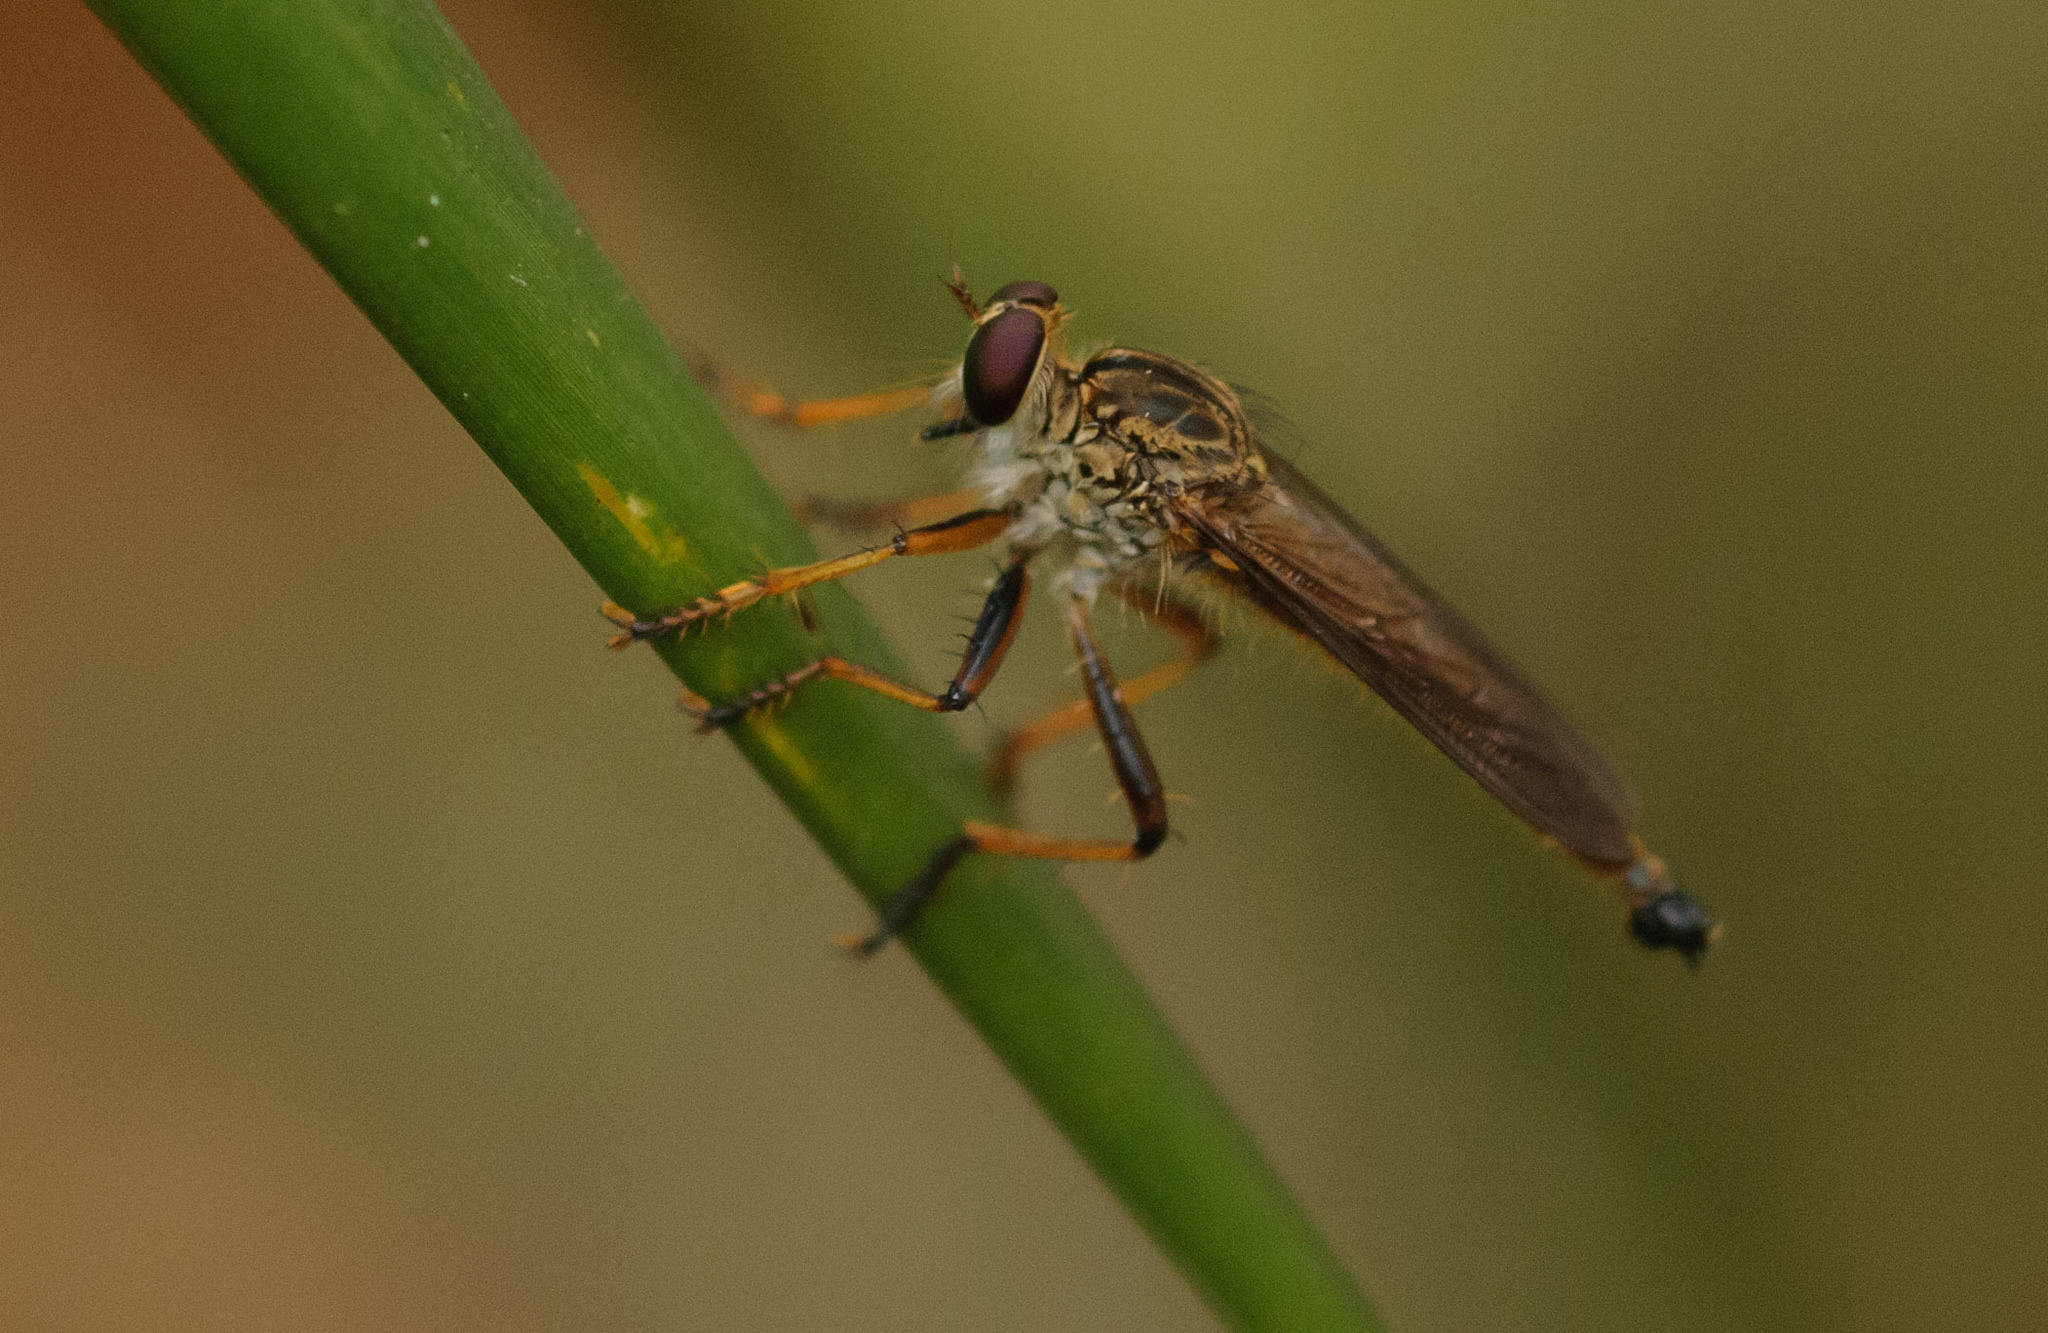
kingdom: Animalia
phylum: Arthropoda
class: Insecta
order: Diptera
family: Asilidae
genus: Reburrus
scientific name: Reburrus bancrofti
